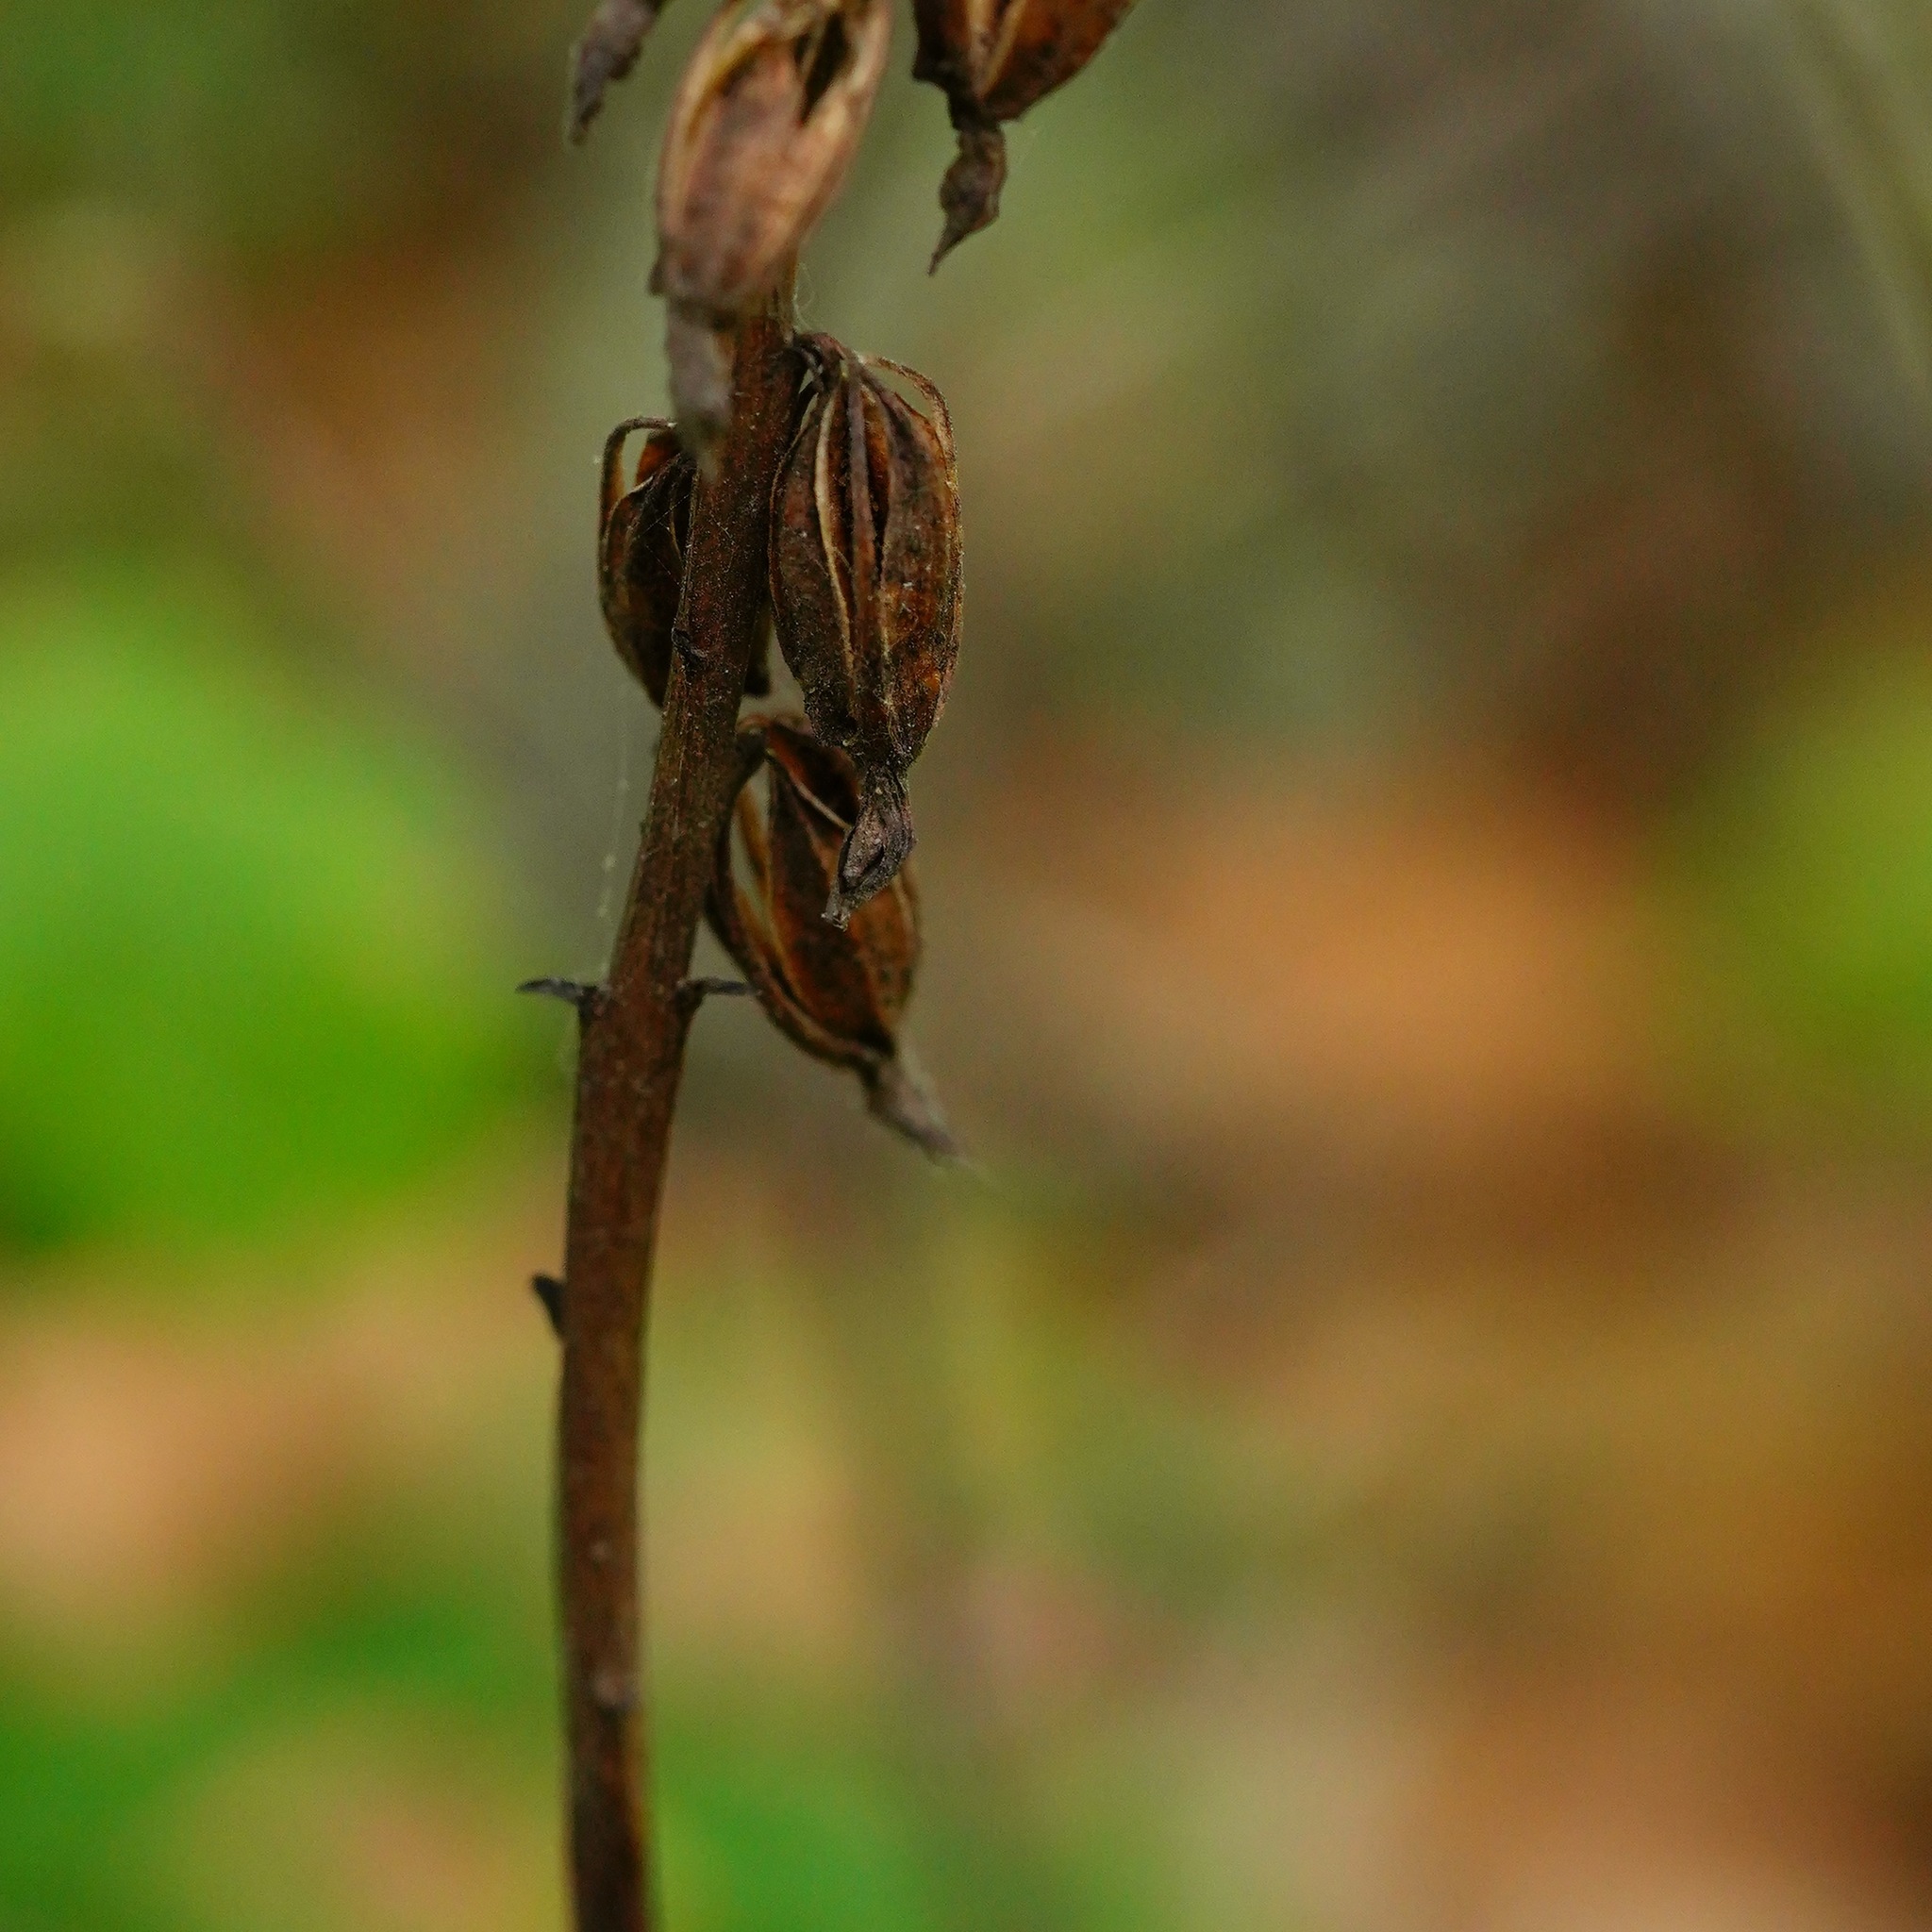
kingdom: Plantae
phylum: Tracheophyta
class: Liliopsida
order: Asparagales
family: Orchidaceae
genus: Corallorhiza
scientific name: Corallorhiza maculata
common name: Spotted coralroot
